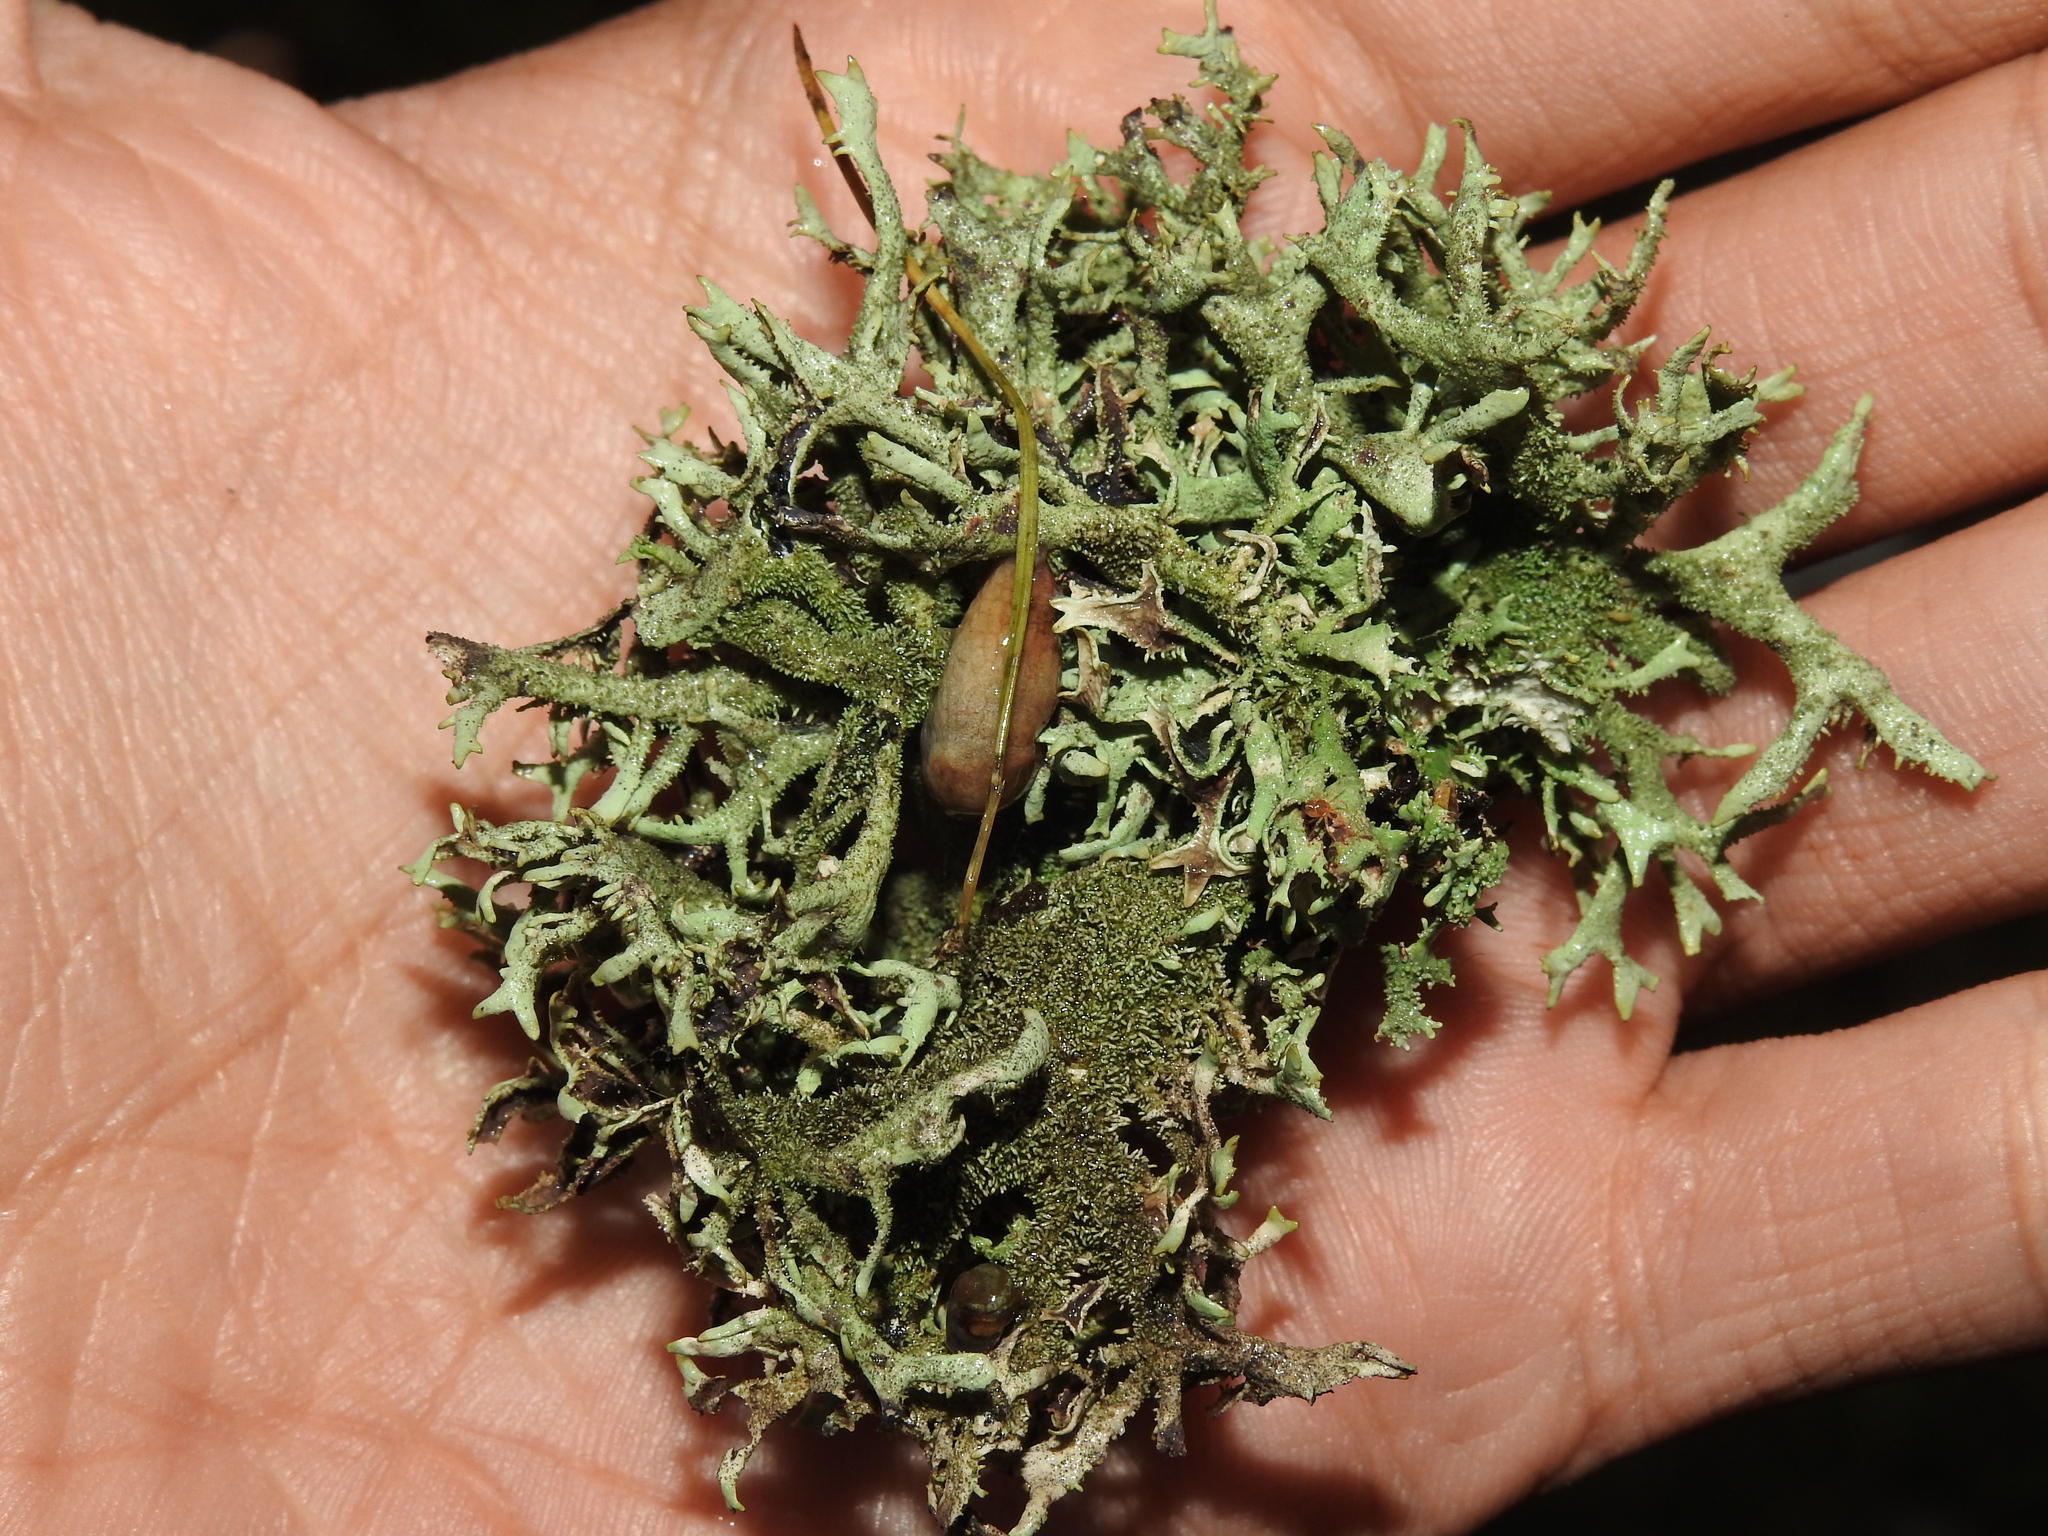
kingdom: Fungi
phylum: Ascomycota
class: Lecanoromycetes
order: Lecanorales
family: Parmeliaceae
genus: Pseudevernia
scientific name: Pseudevernia furfuracea
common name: Tree moss
